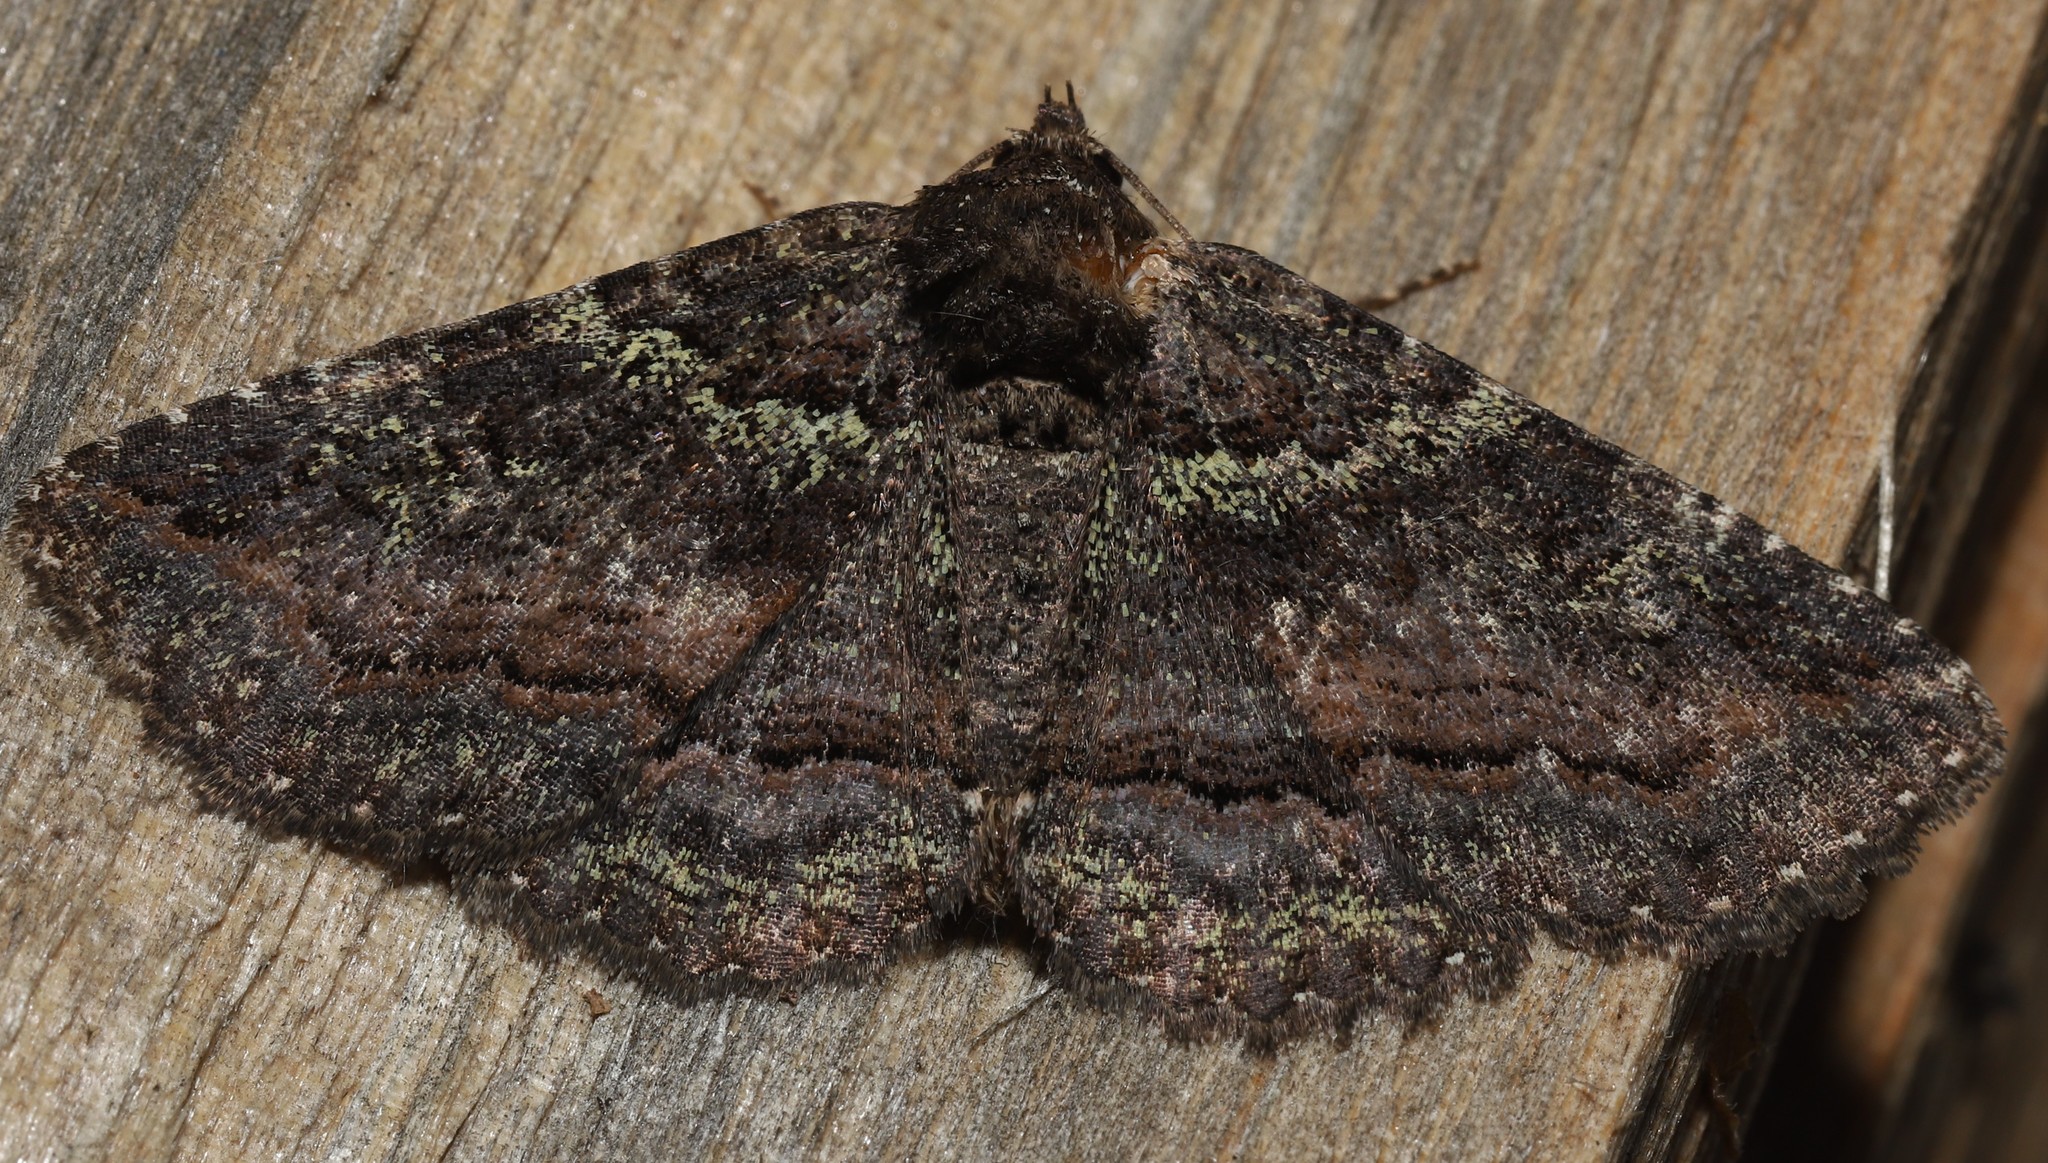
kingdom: Animalia
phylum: Arthropoda
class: Insecta
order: Lepidoptera
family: Erebidae
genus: Zale
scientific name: Zale aeruginosa
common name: Green-dusted zale moth
